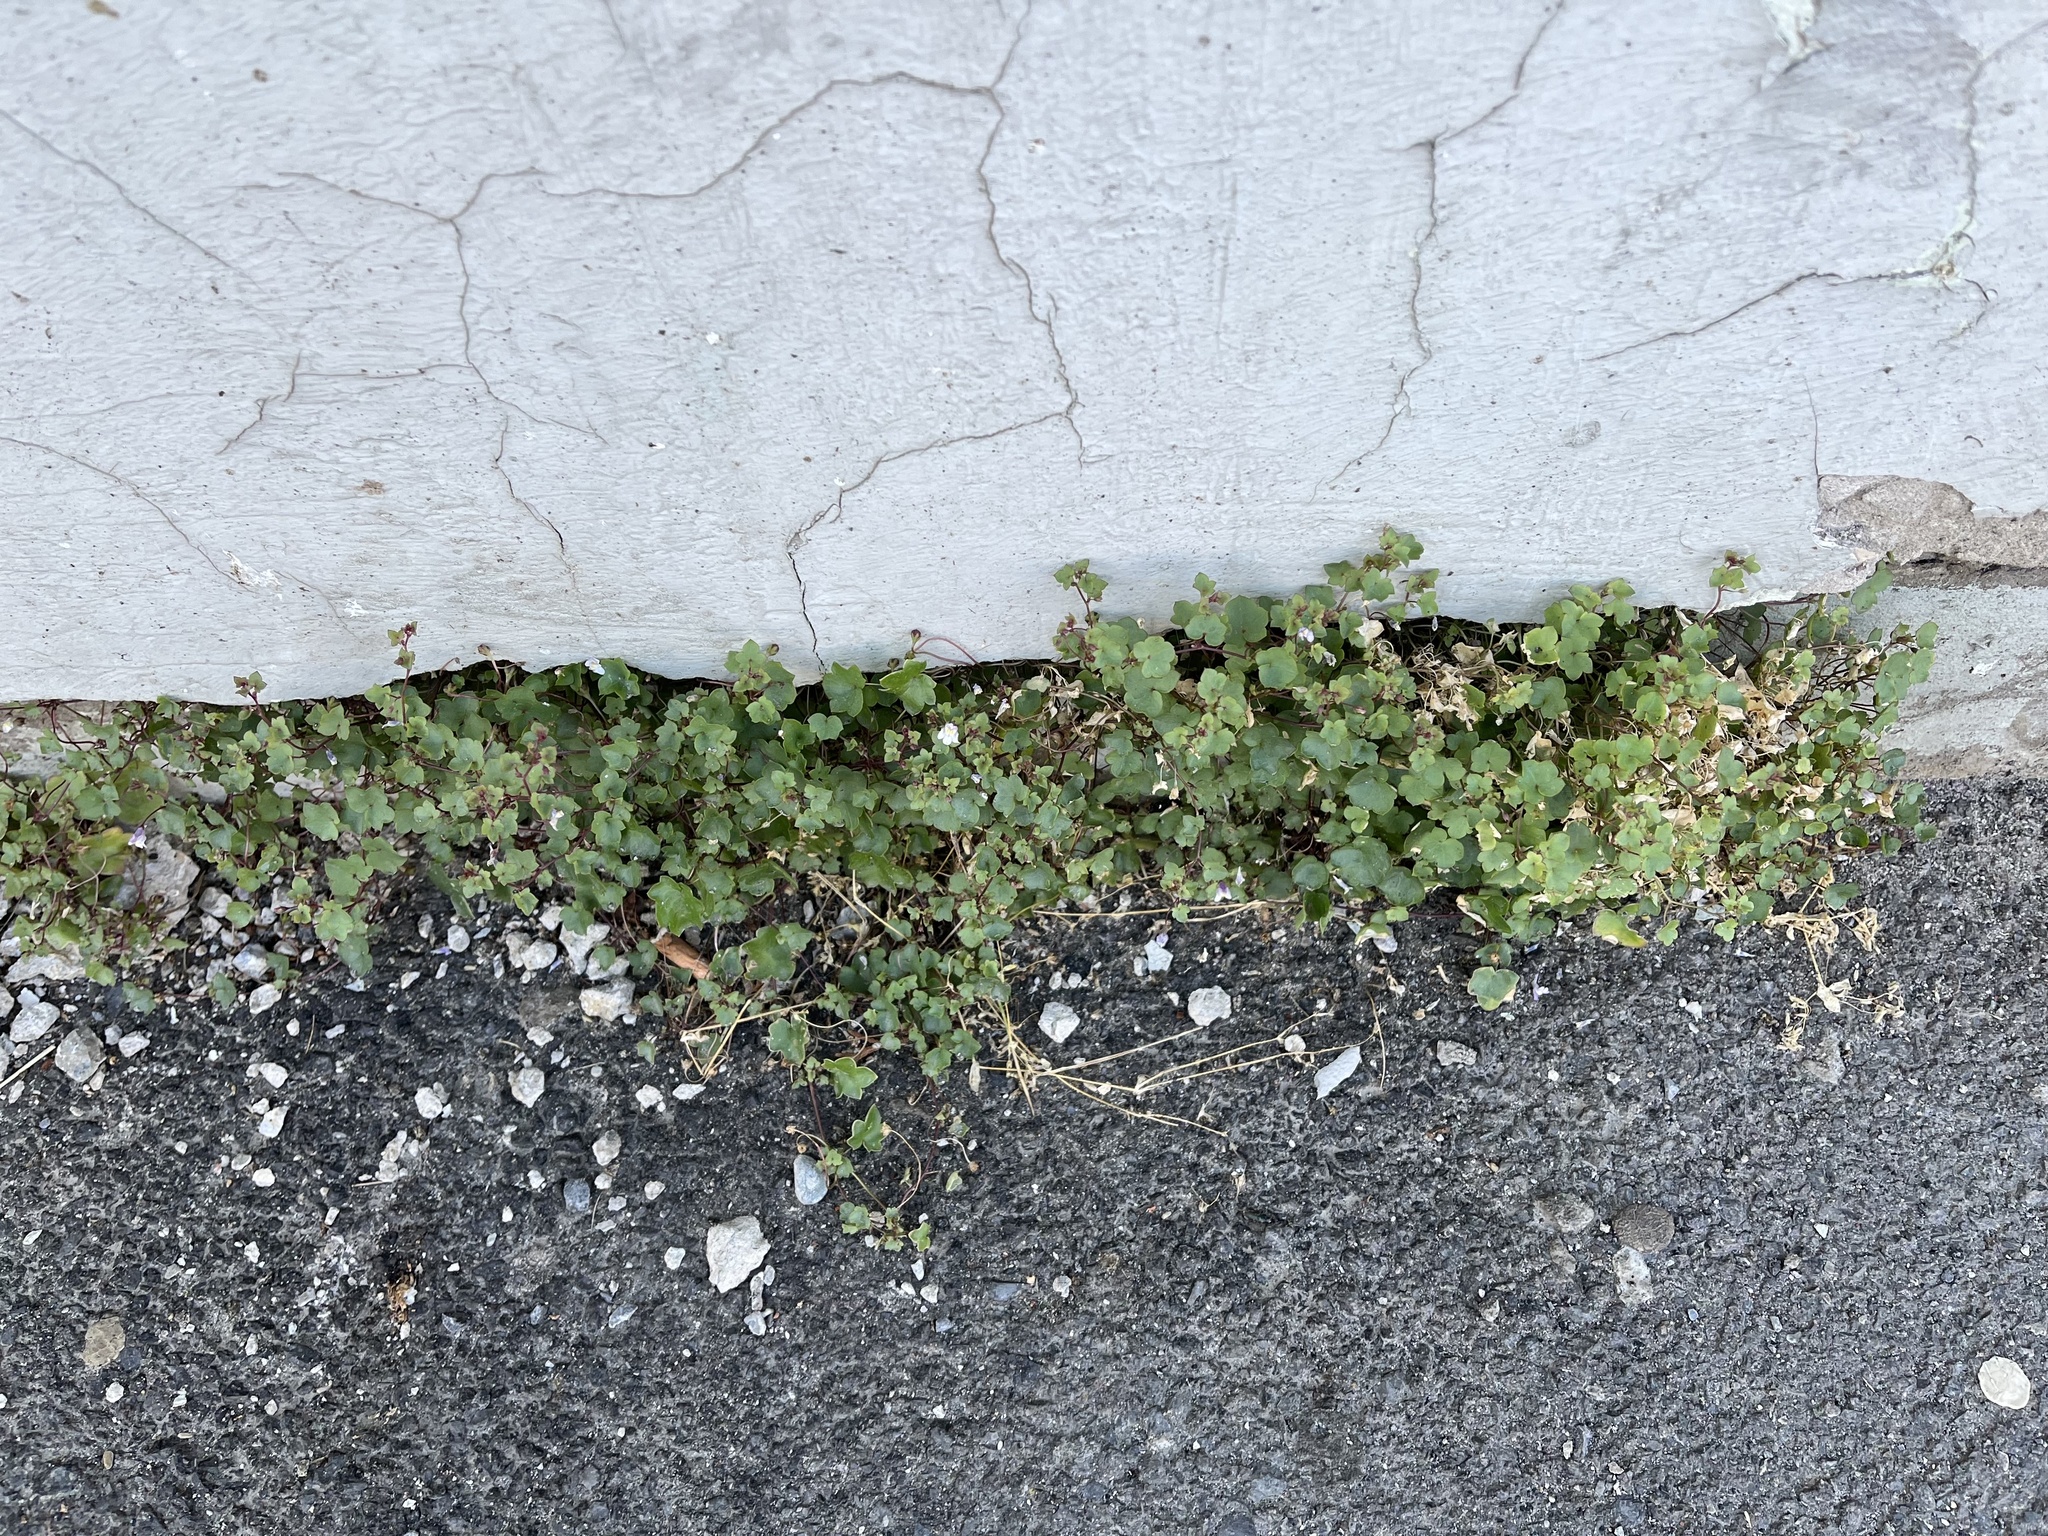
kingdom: Plantae
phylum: Tracheophyta
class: Magnoliopsida
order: Lamiales
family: Plantaginaceae
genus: Cymbalaria
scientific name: Cymbalaria muralis
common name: Ivy-leaved toadflax
